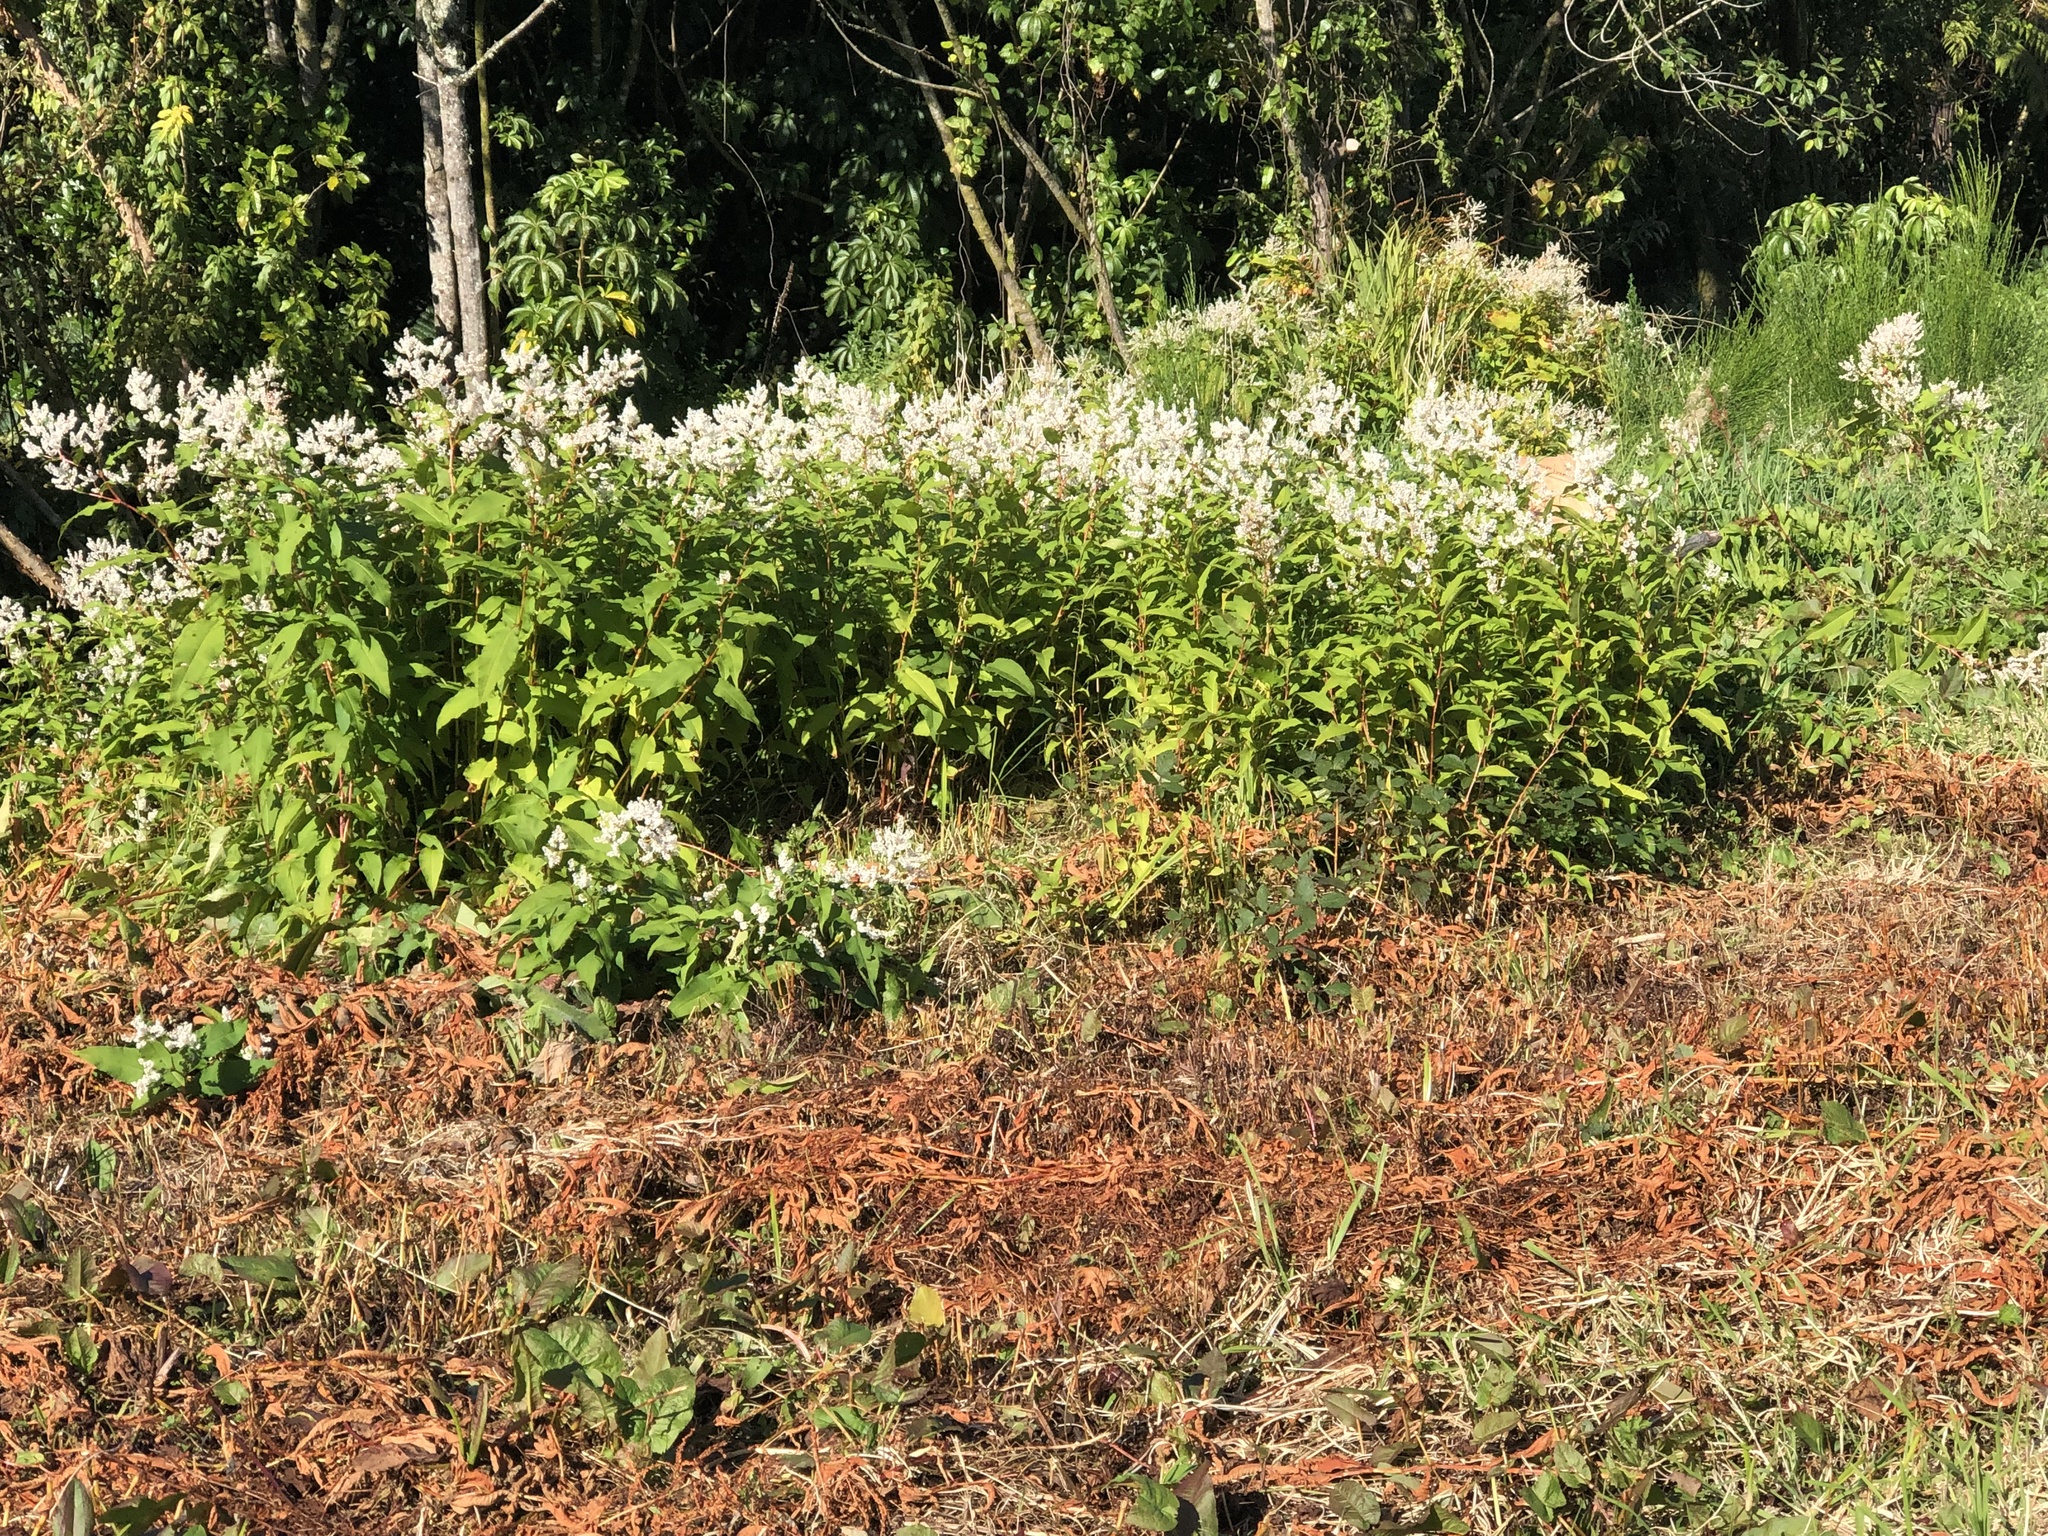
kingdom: Plantae
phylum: Tracheophyta
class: Magnoliopsida
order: Caryophyllales
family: Polygonaceae
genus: Koenigia
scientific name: Koenigia polystachya
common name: Himalayan knotweed
